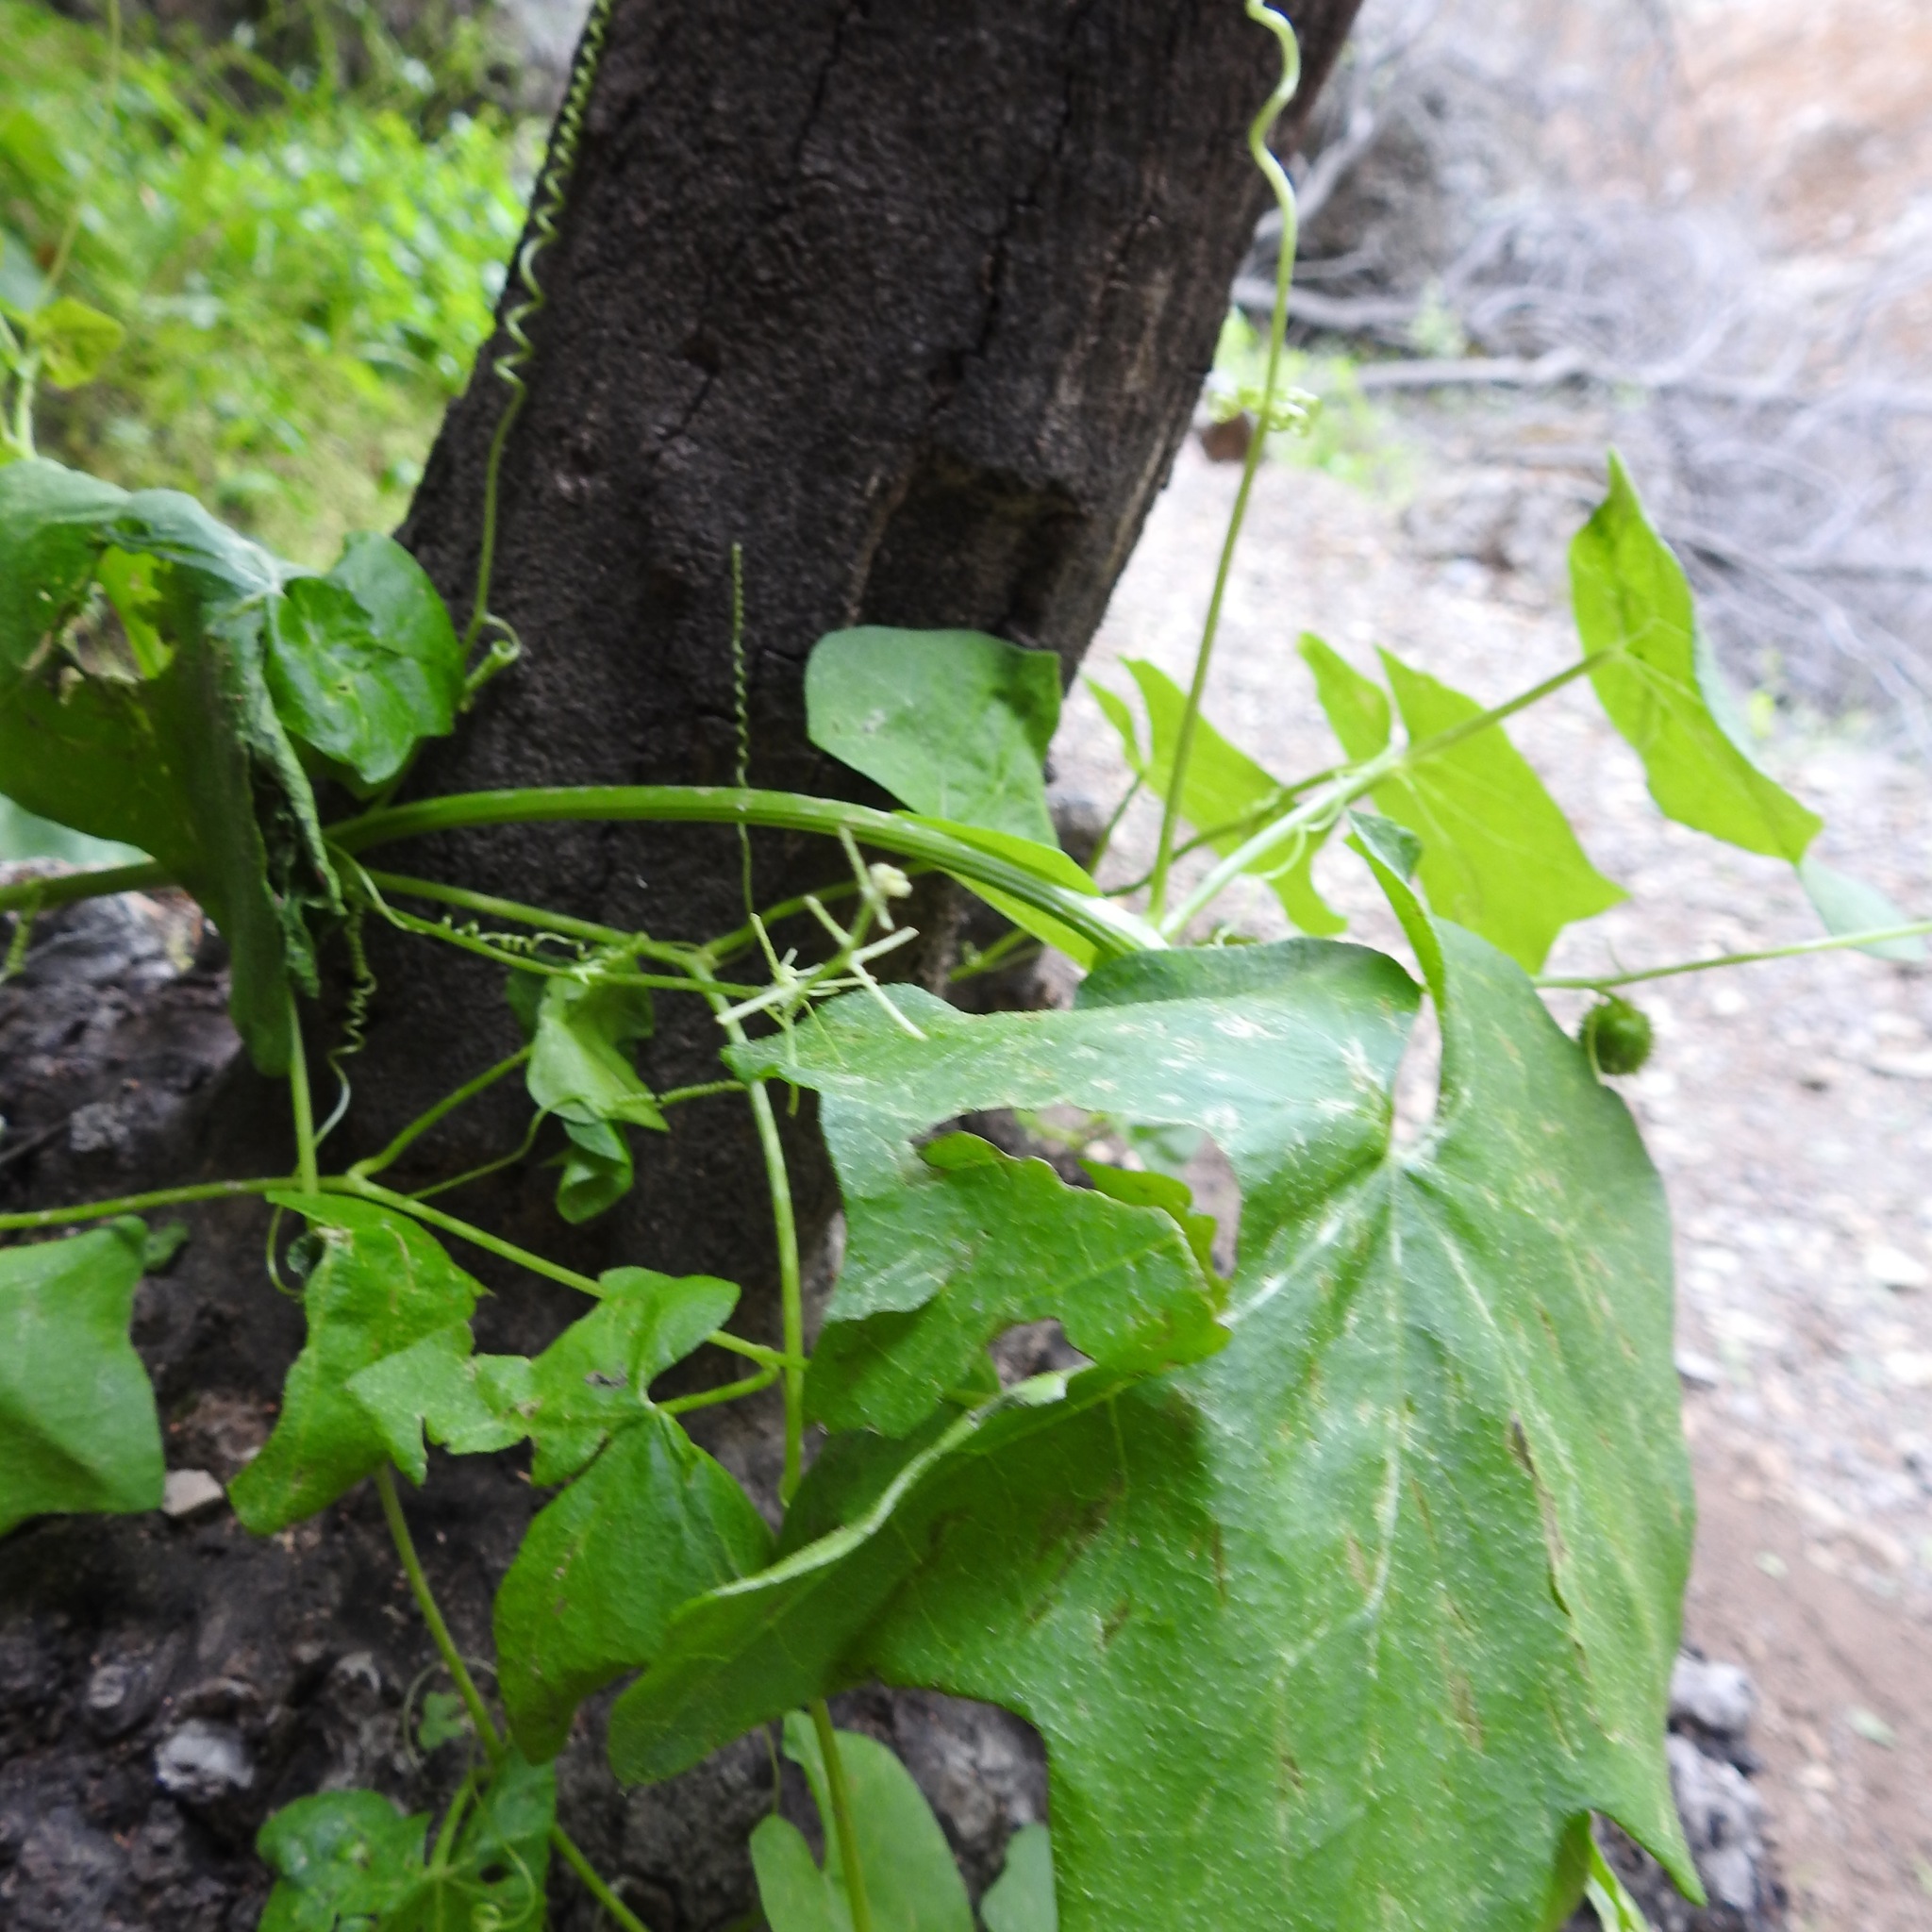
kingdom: Plantae
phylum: Tracheophyta
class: Magnoliopsida
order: Cucurbitales
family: Cucurbitaceae
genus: Marah
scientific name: Marah fabacea
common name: California manroot
